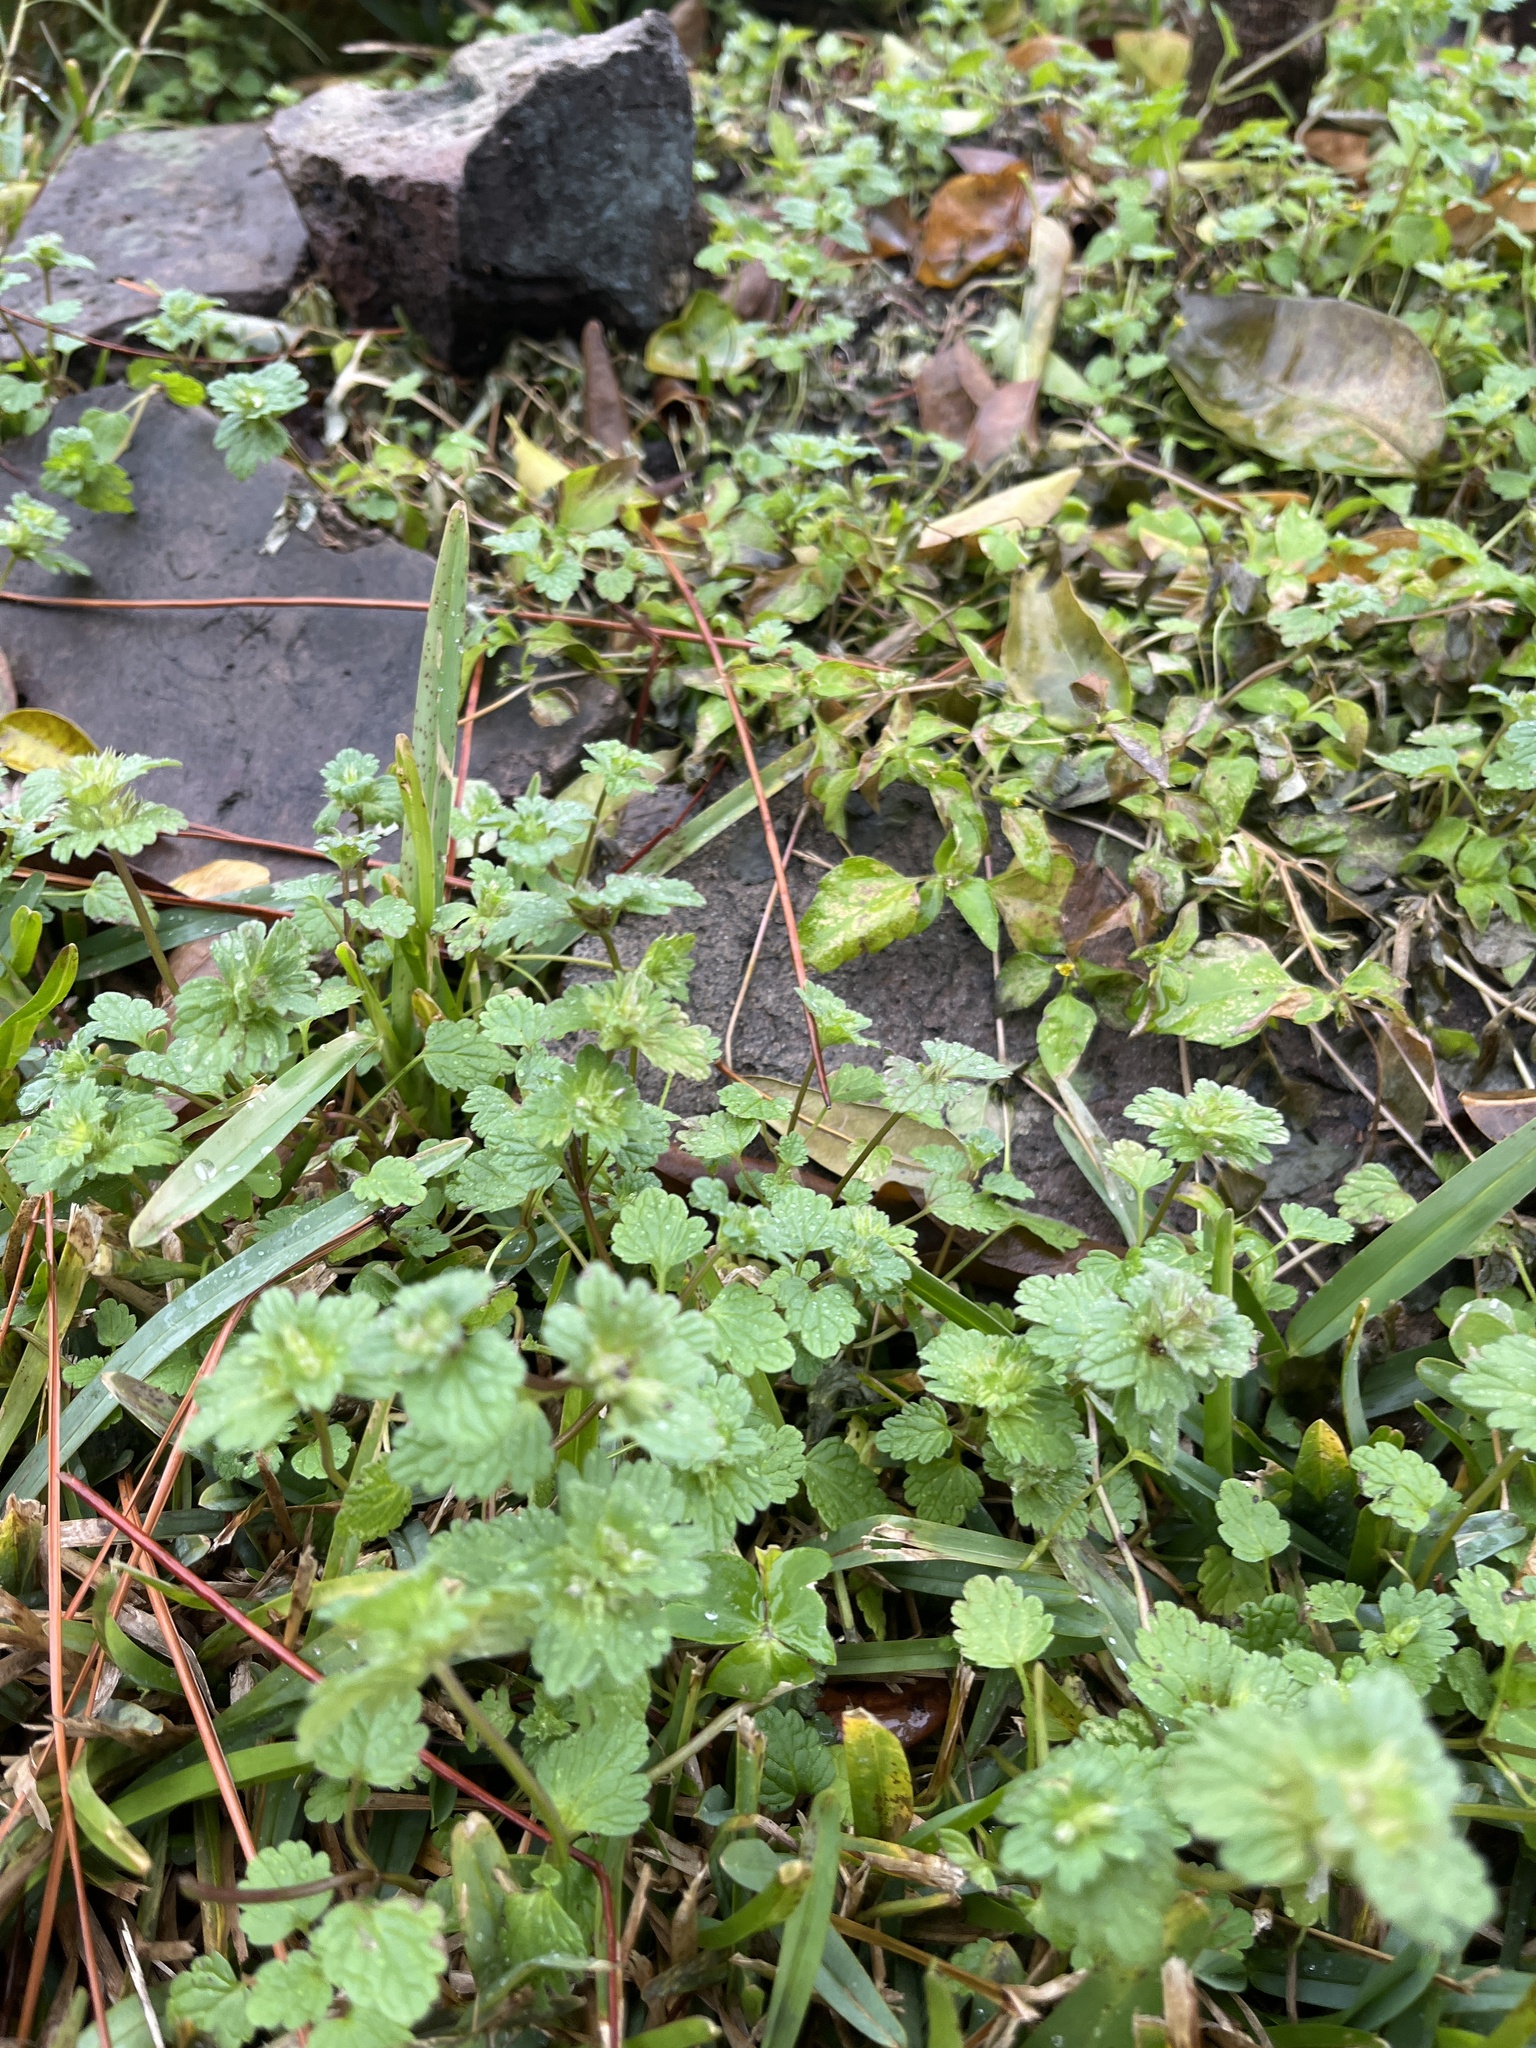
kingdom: Plantae
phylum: Tracheophyta
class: Magnoliopsida
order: Lamiales
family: Lamiaceae
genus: Lamium
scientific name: Lamium amplexicaule
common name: Henbit dead-nettle
